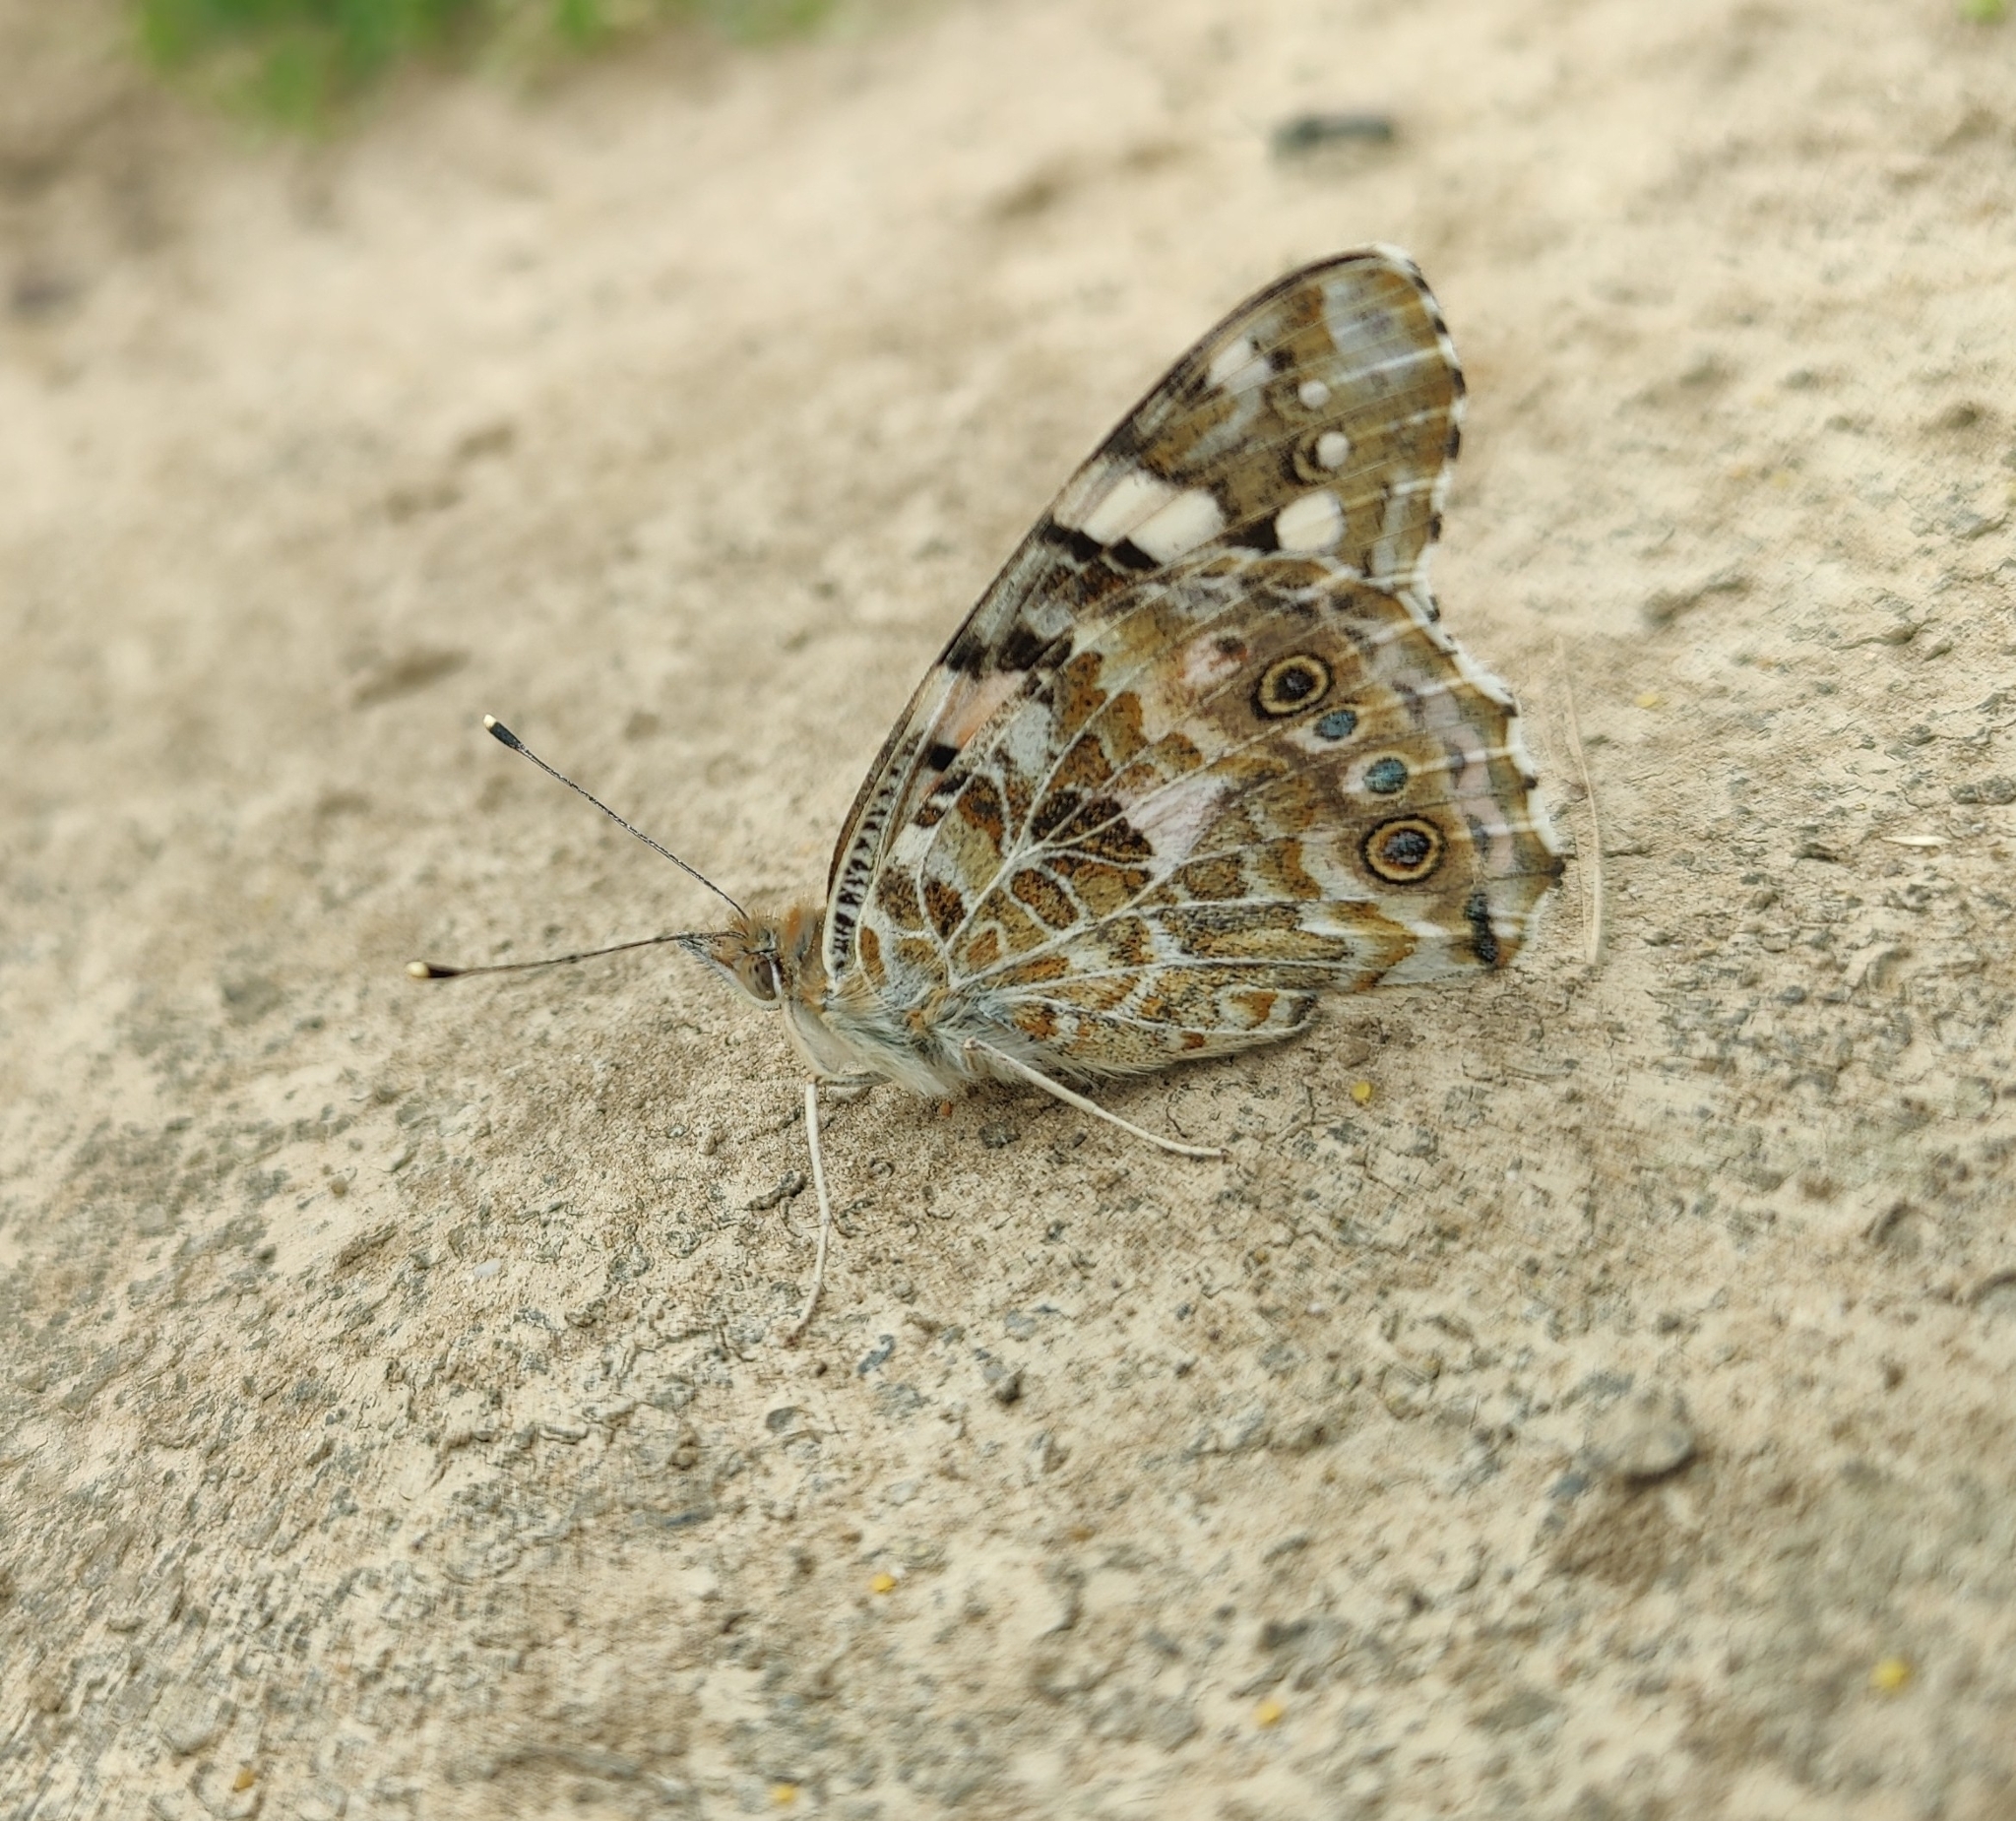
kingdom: Animalia
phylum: Arthropoda
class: Insecta
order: Lepidoptera
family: Nymphalidae
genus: Vanessa
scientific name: Vanessa cardui
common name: Painted lady
